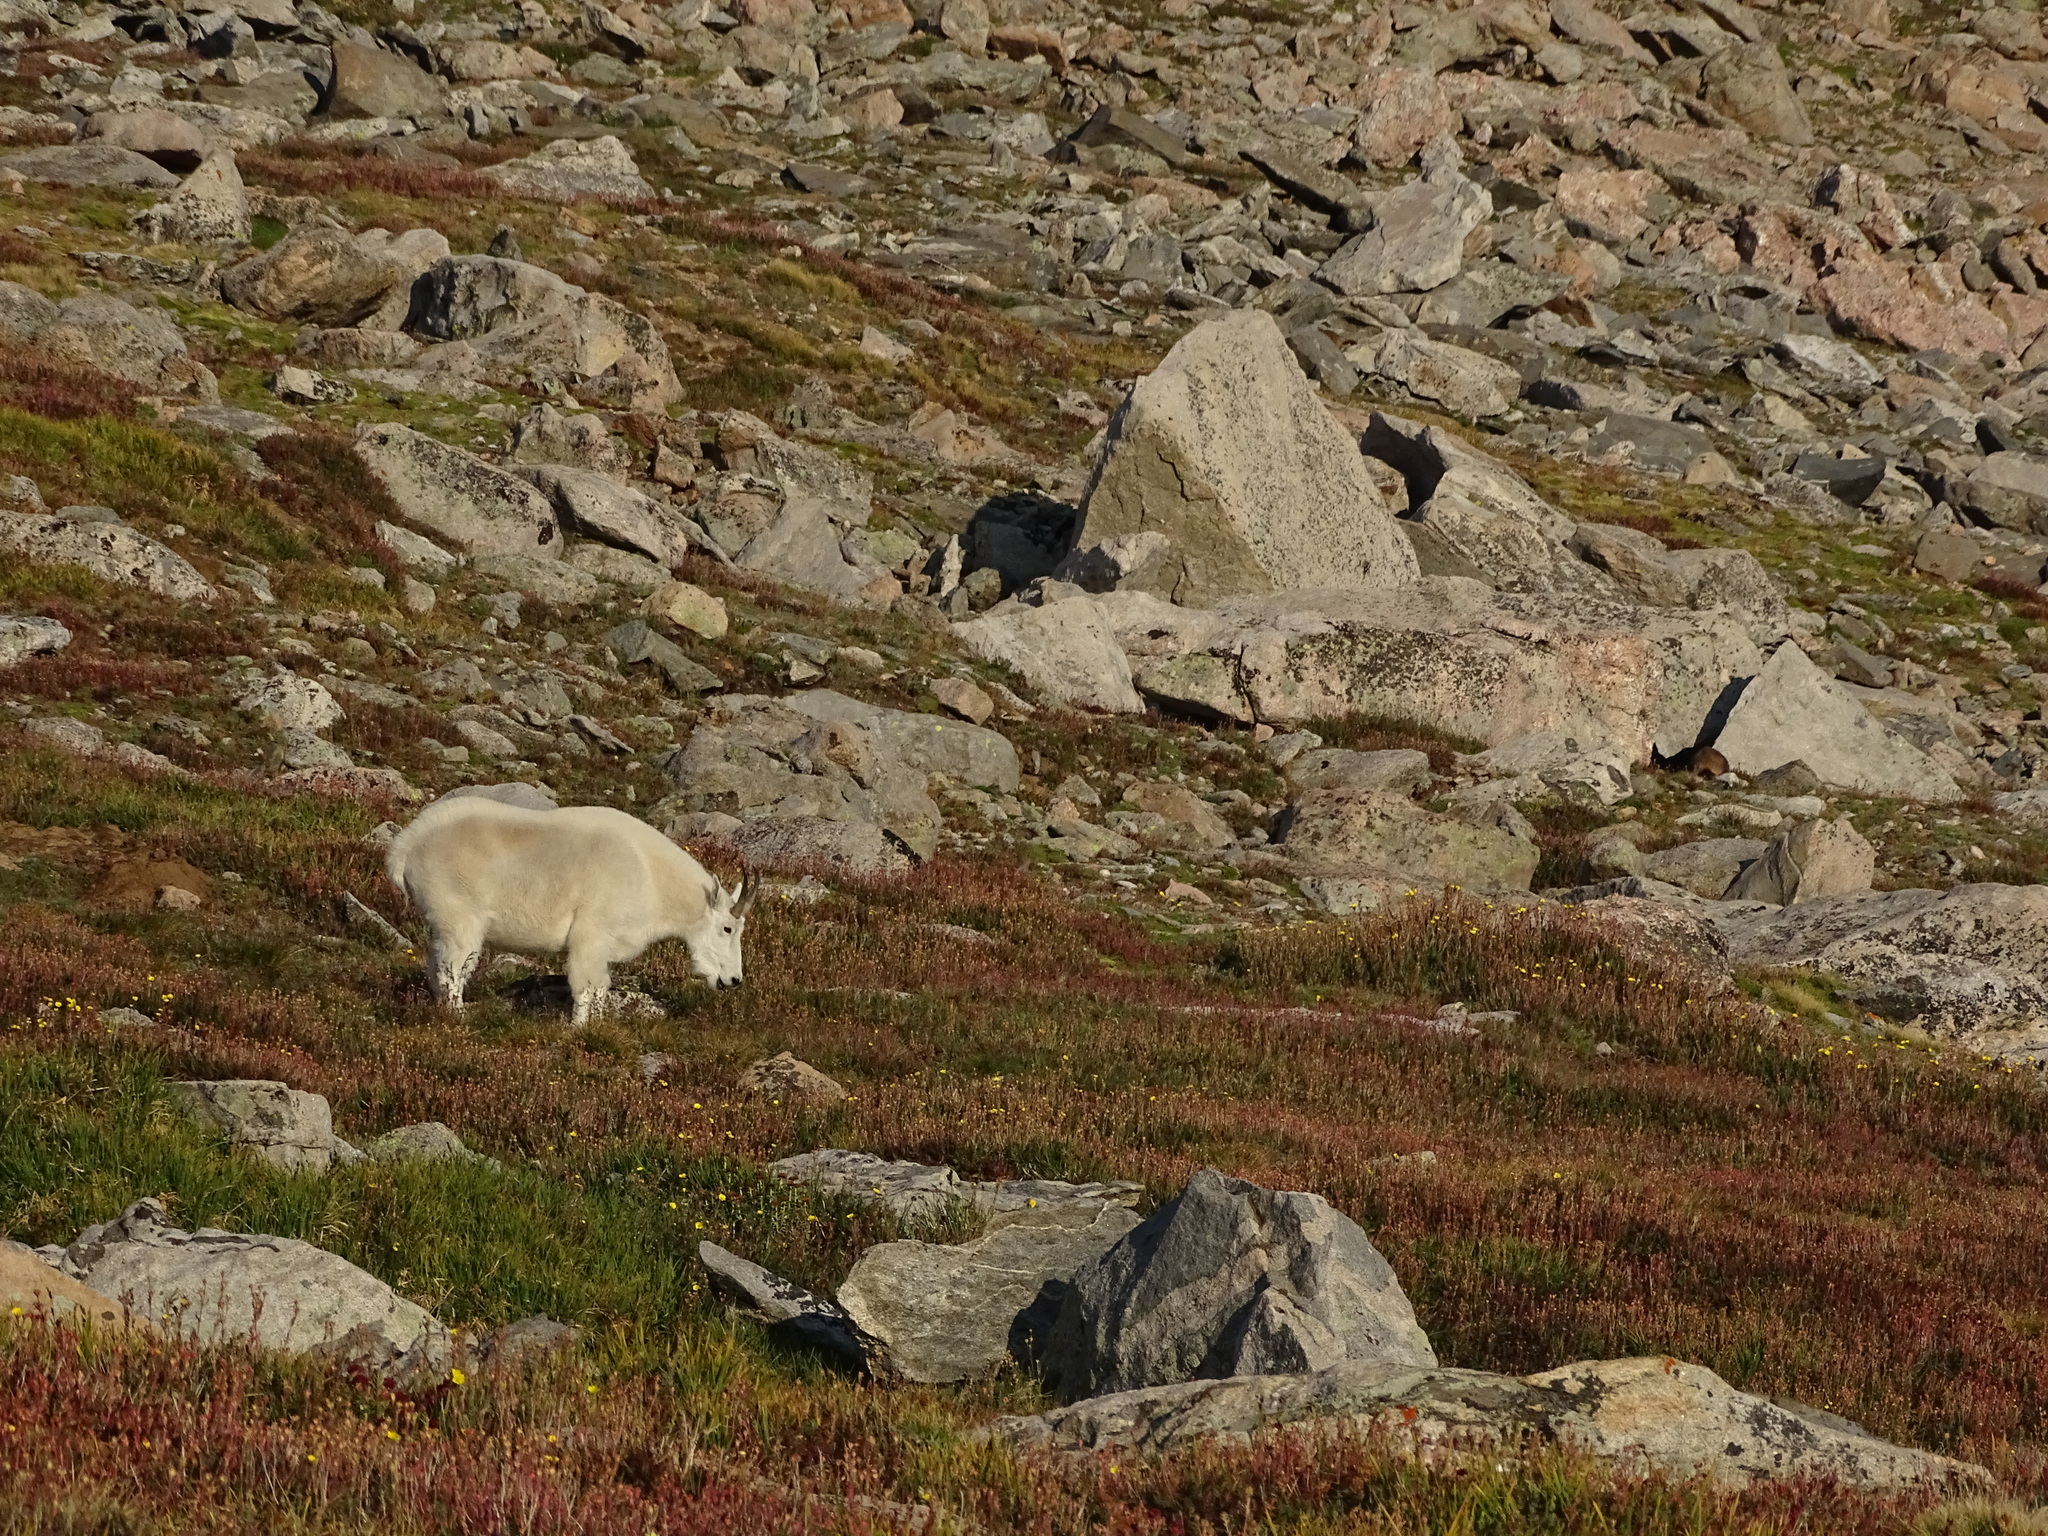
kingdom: Animalia
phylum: Chordata
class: Mammalia
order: Artiodactyla
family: Bovidae
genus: Oreamnos
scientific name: Oreamnos americanus
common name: Mountain goat
